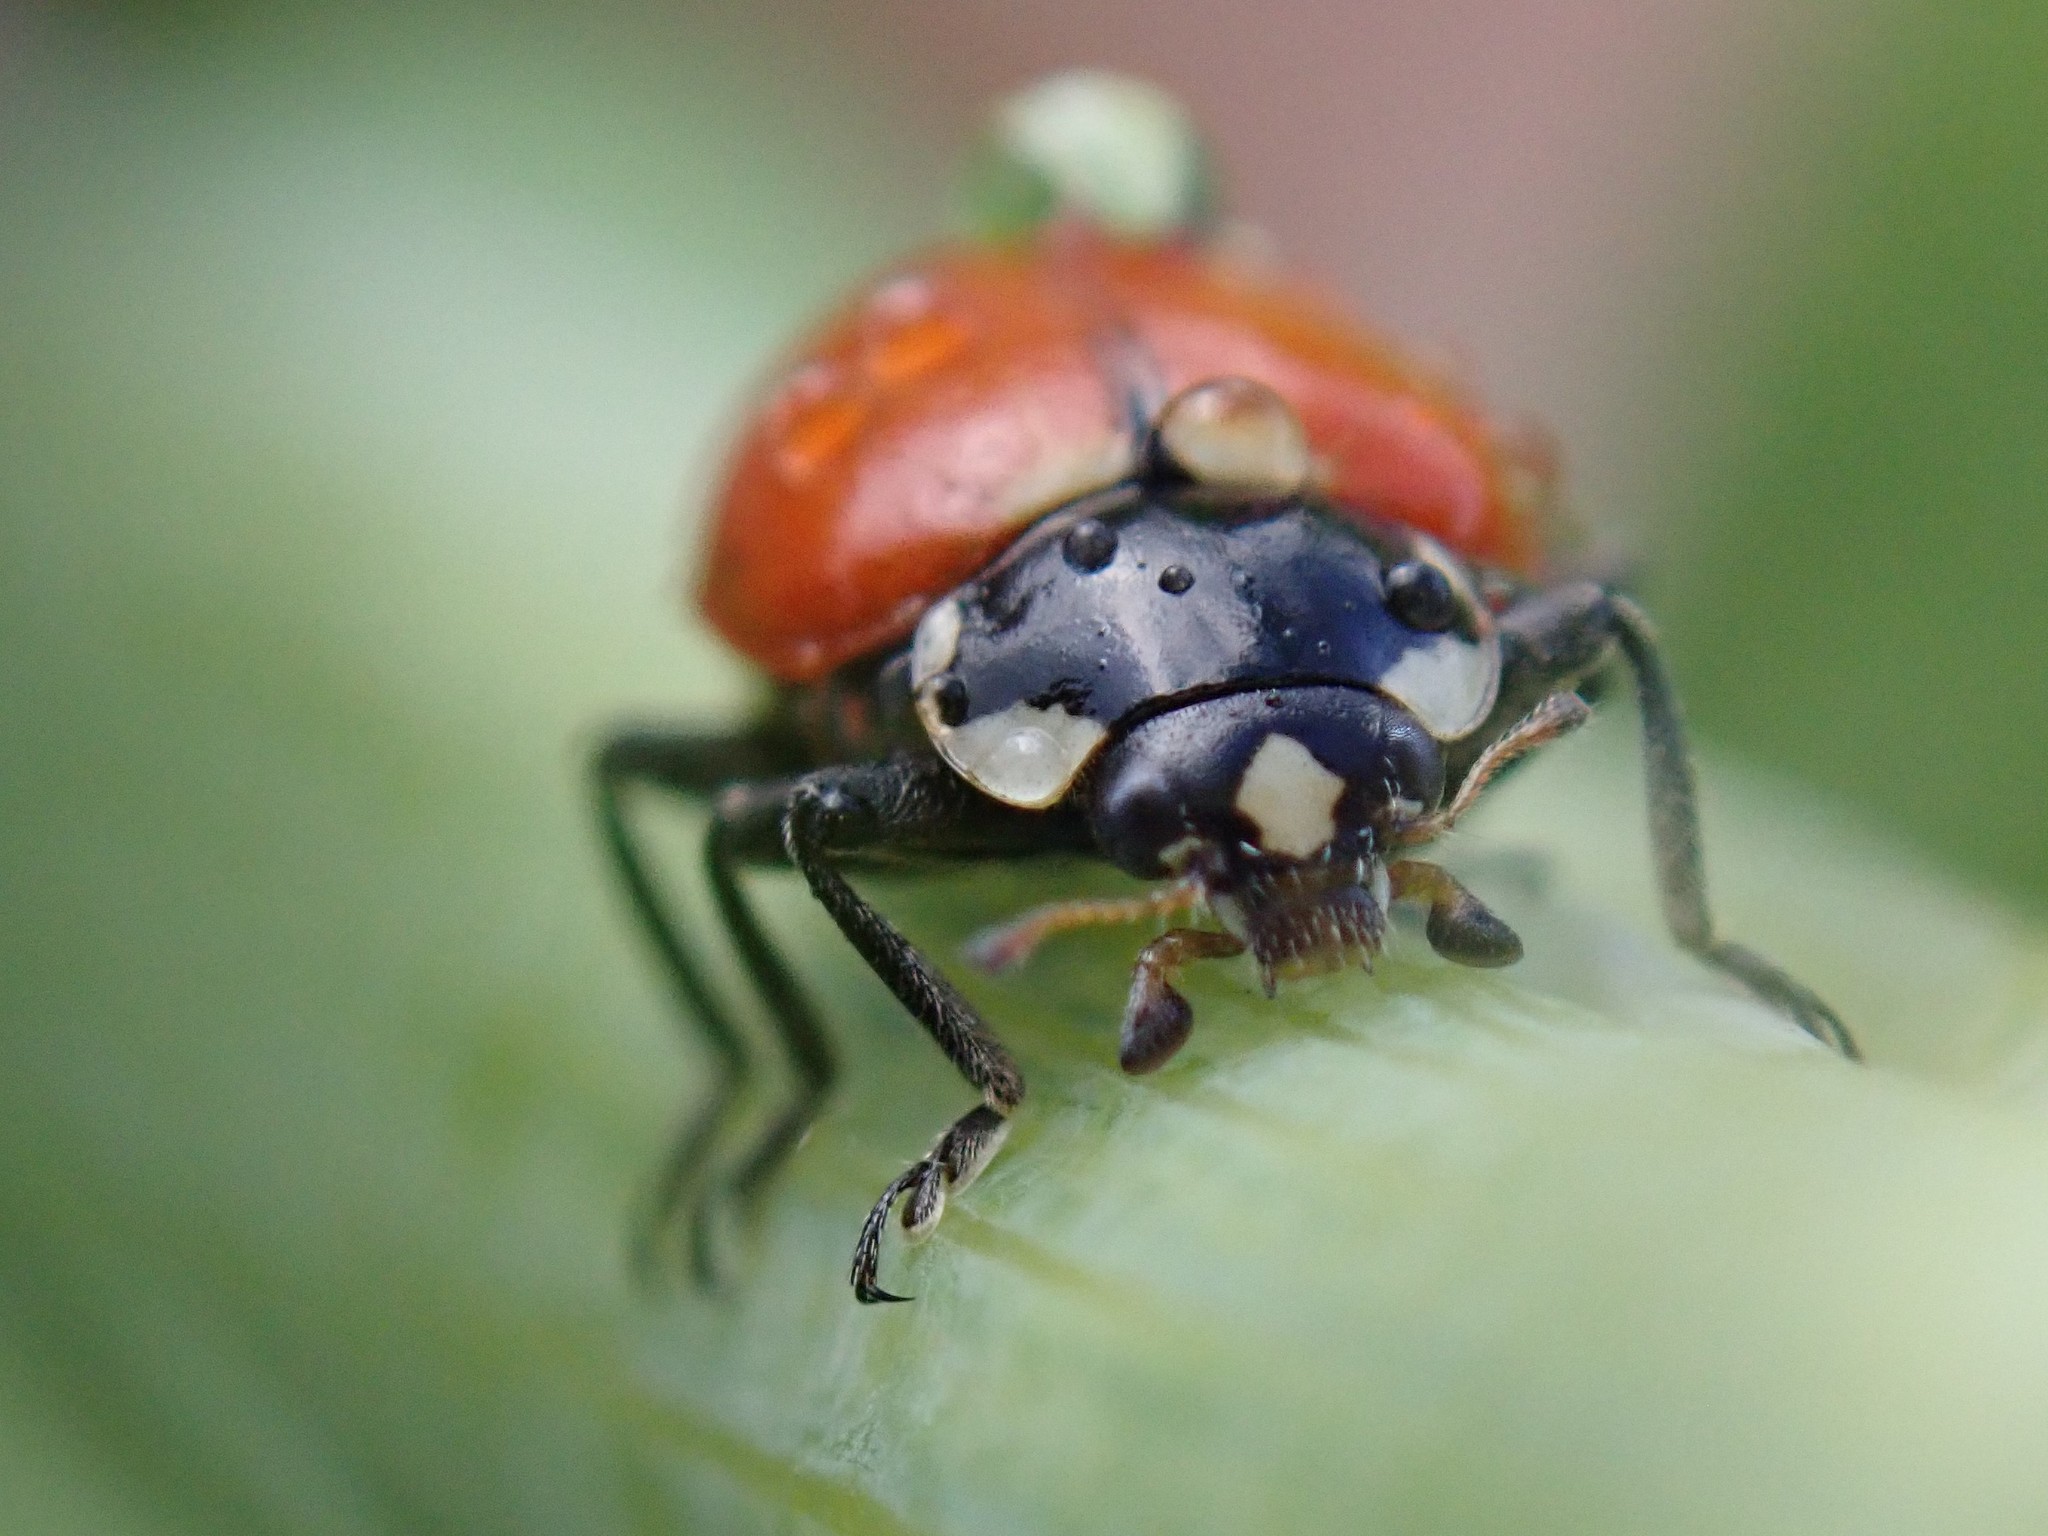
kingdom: Animalia
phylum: Arthropoda
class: Insecta
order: Coleoptera
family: Coccinellidae
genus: Hippodamia
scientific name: Hippodamia quinquesignata
